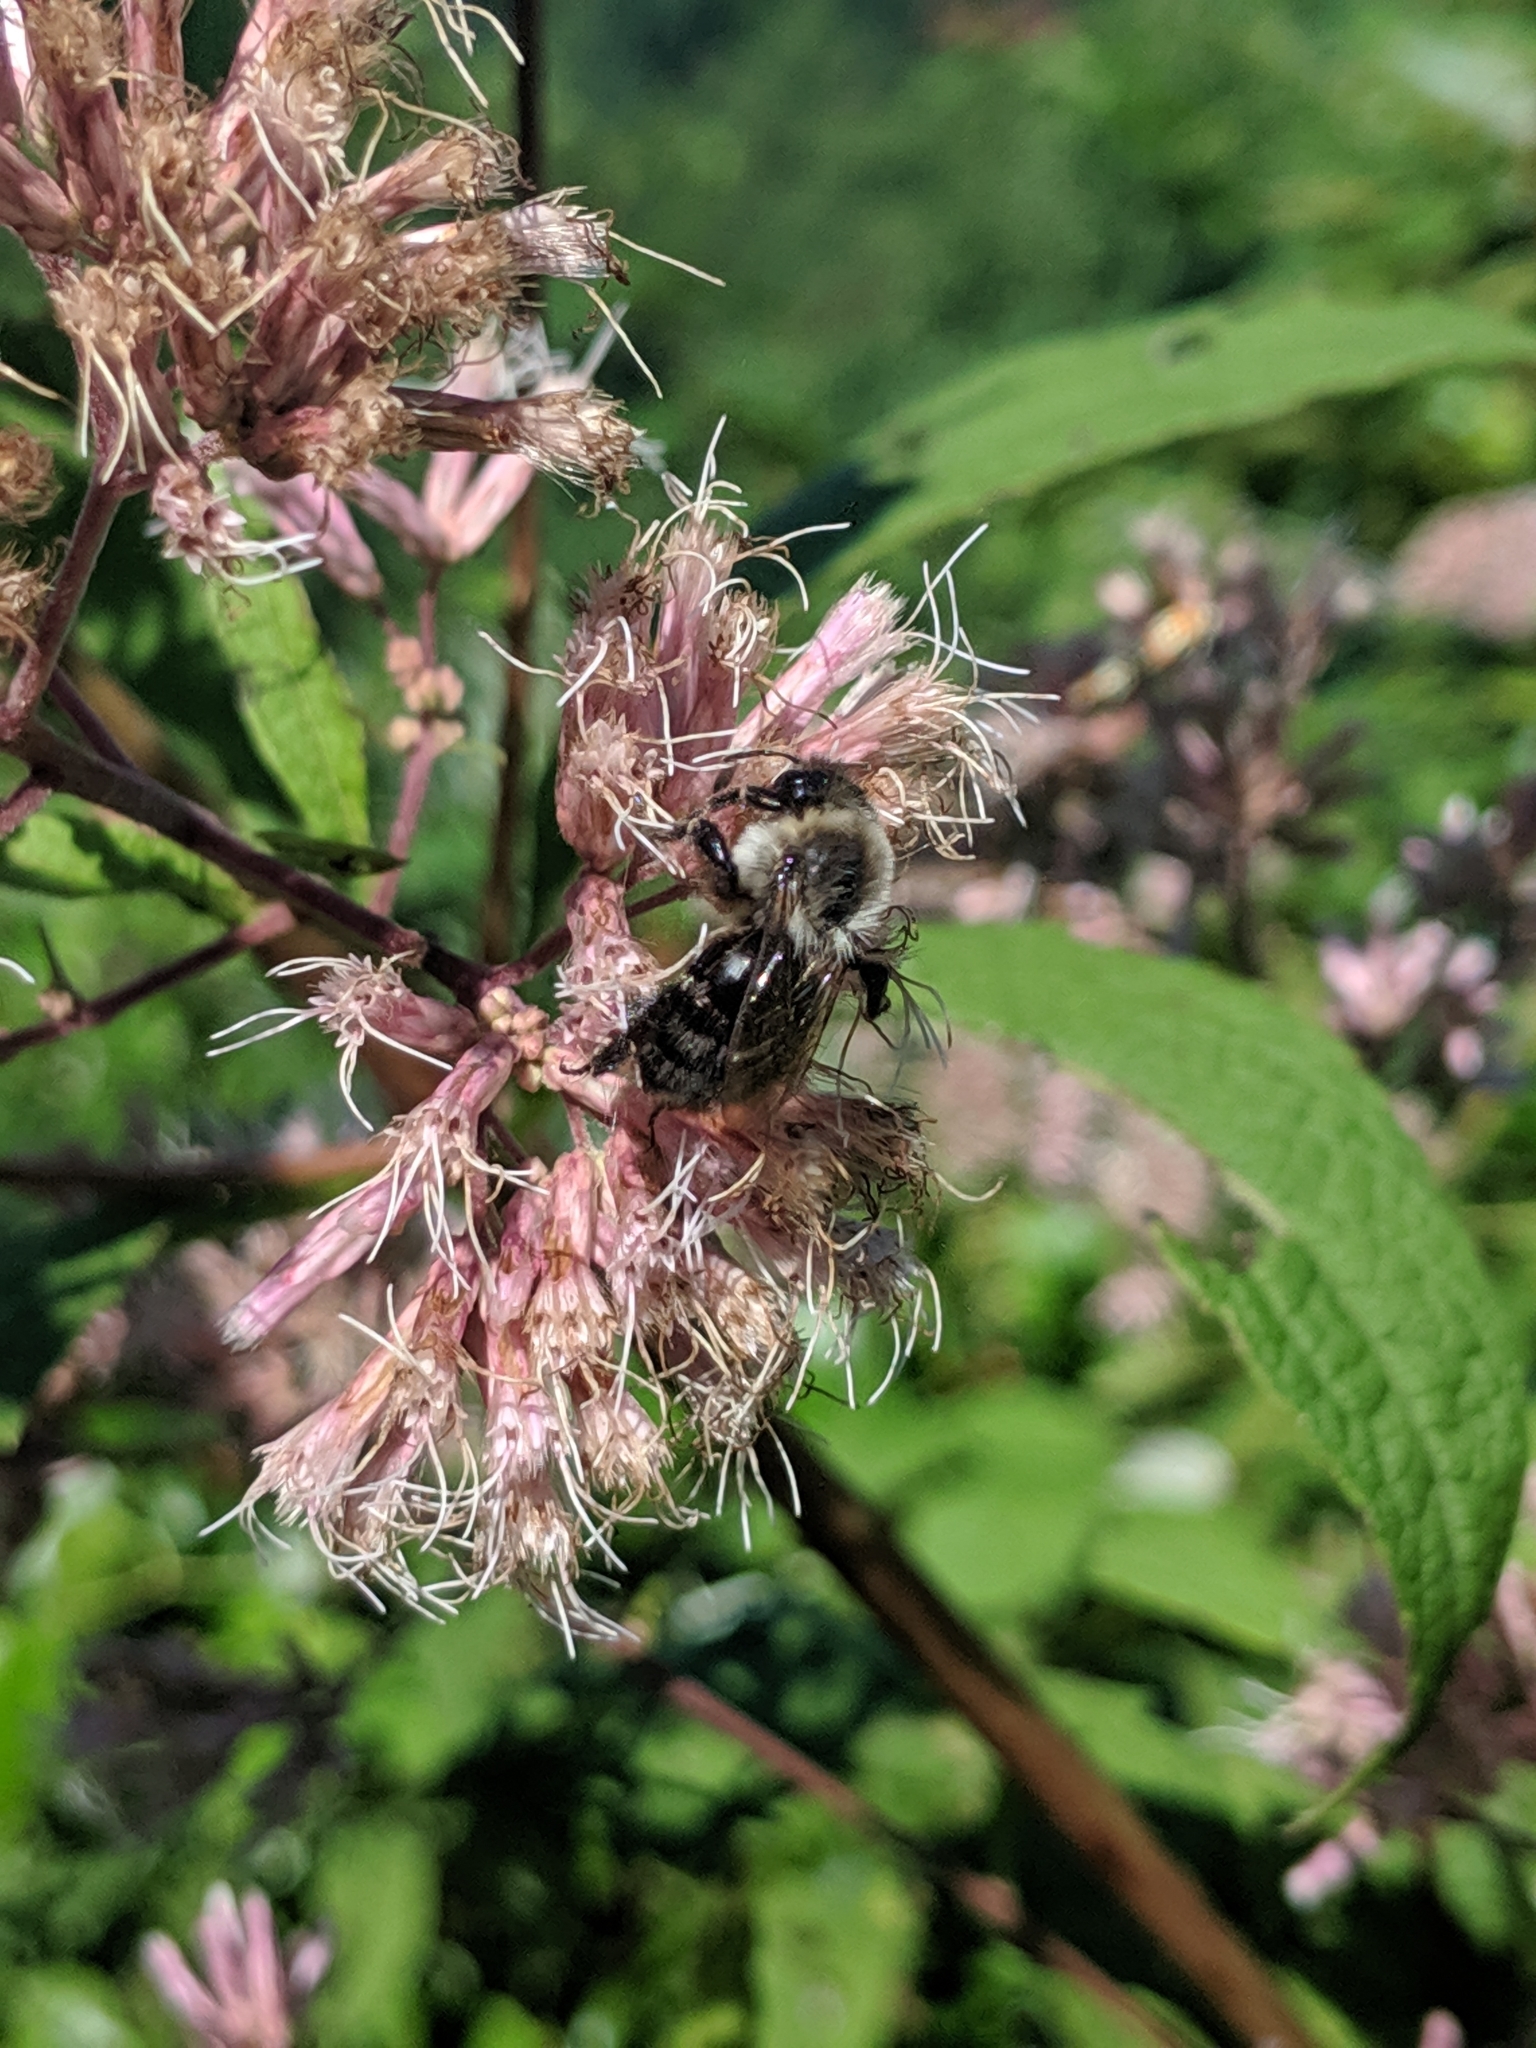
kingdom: Animalia
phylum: Arthropoda
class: Insecta
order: Hymenoptera
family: Apidae
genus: Bombus
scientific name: Bombus impatiens
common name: Common eastern bumble bee
